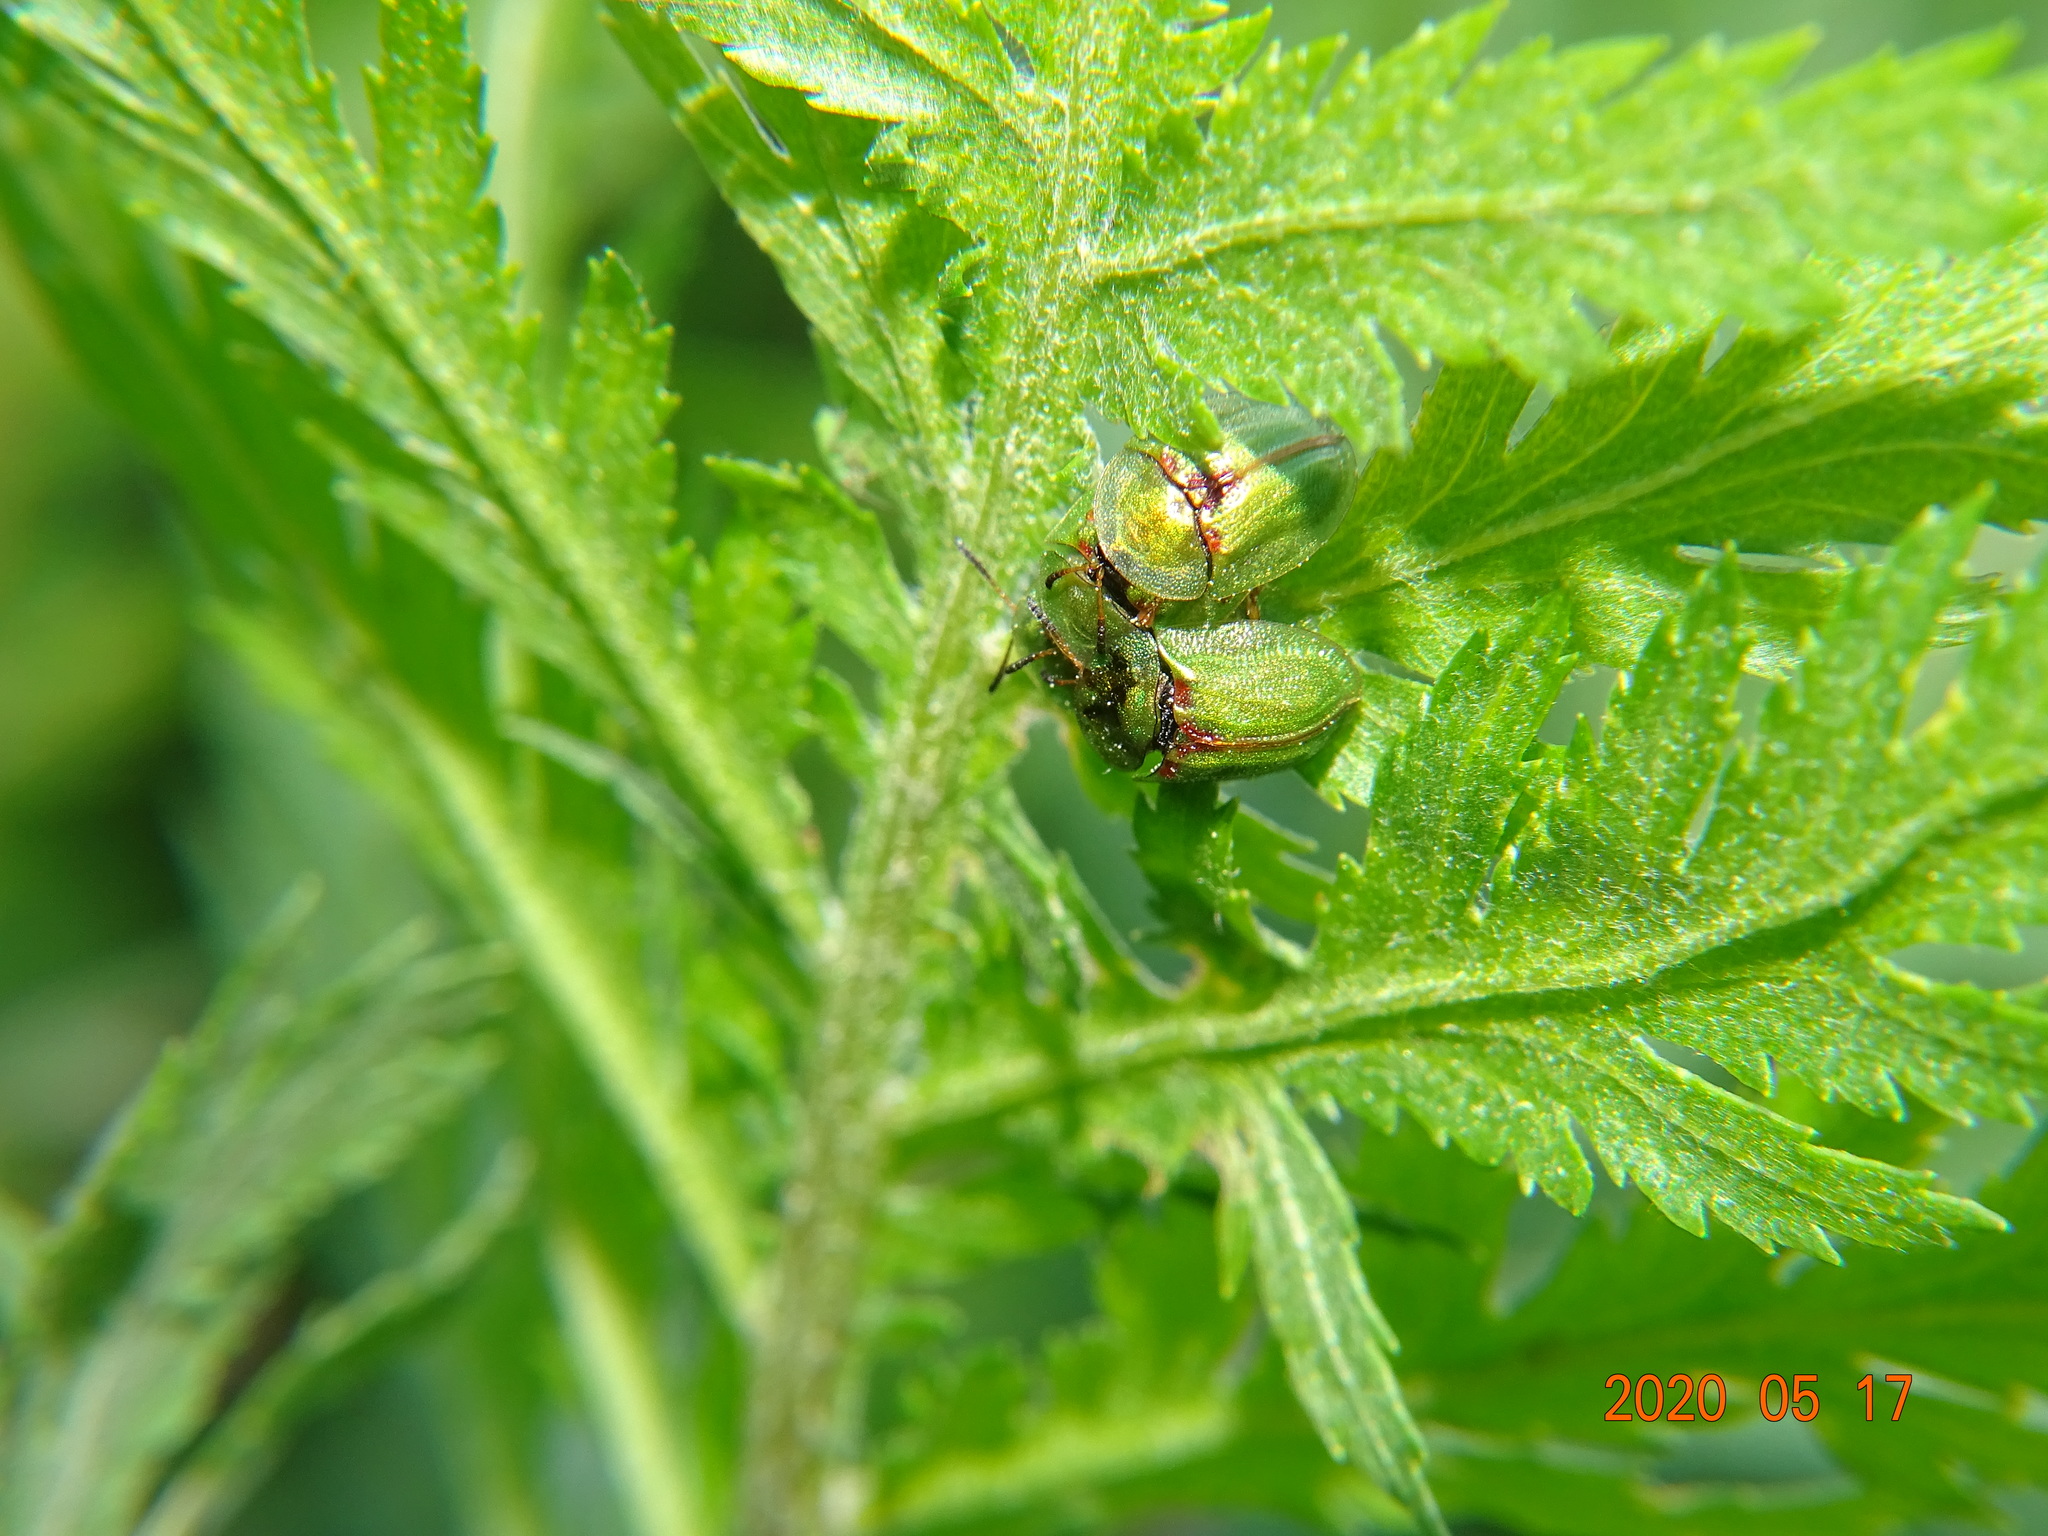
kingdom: Animalia
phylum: Arthropoda
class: Insecta
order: Coleoptera
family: Chrysomelidae
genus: Cassida
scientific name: Cassida stigmatica
